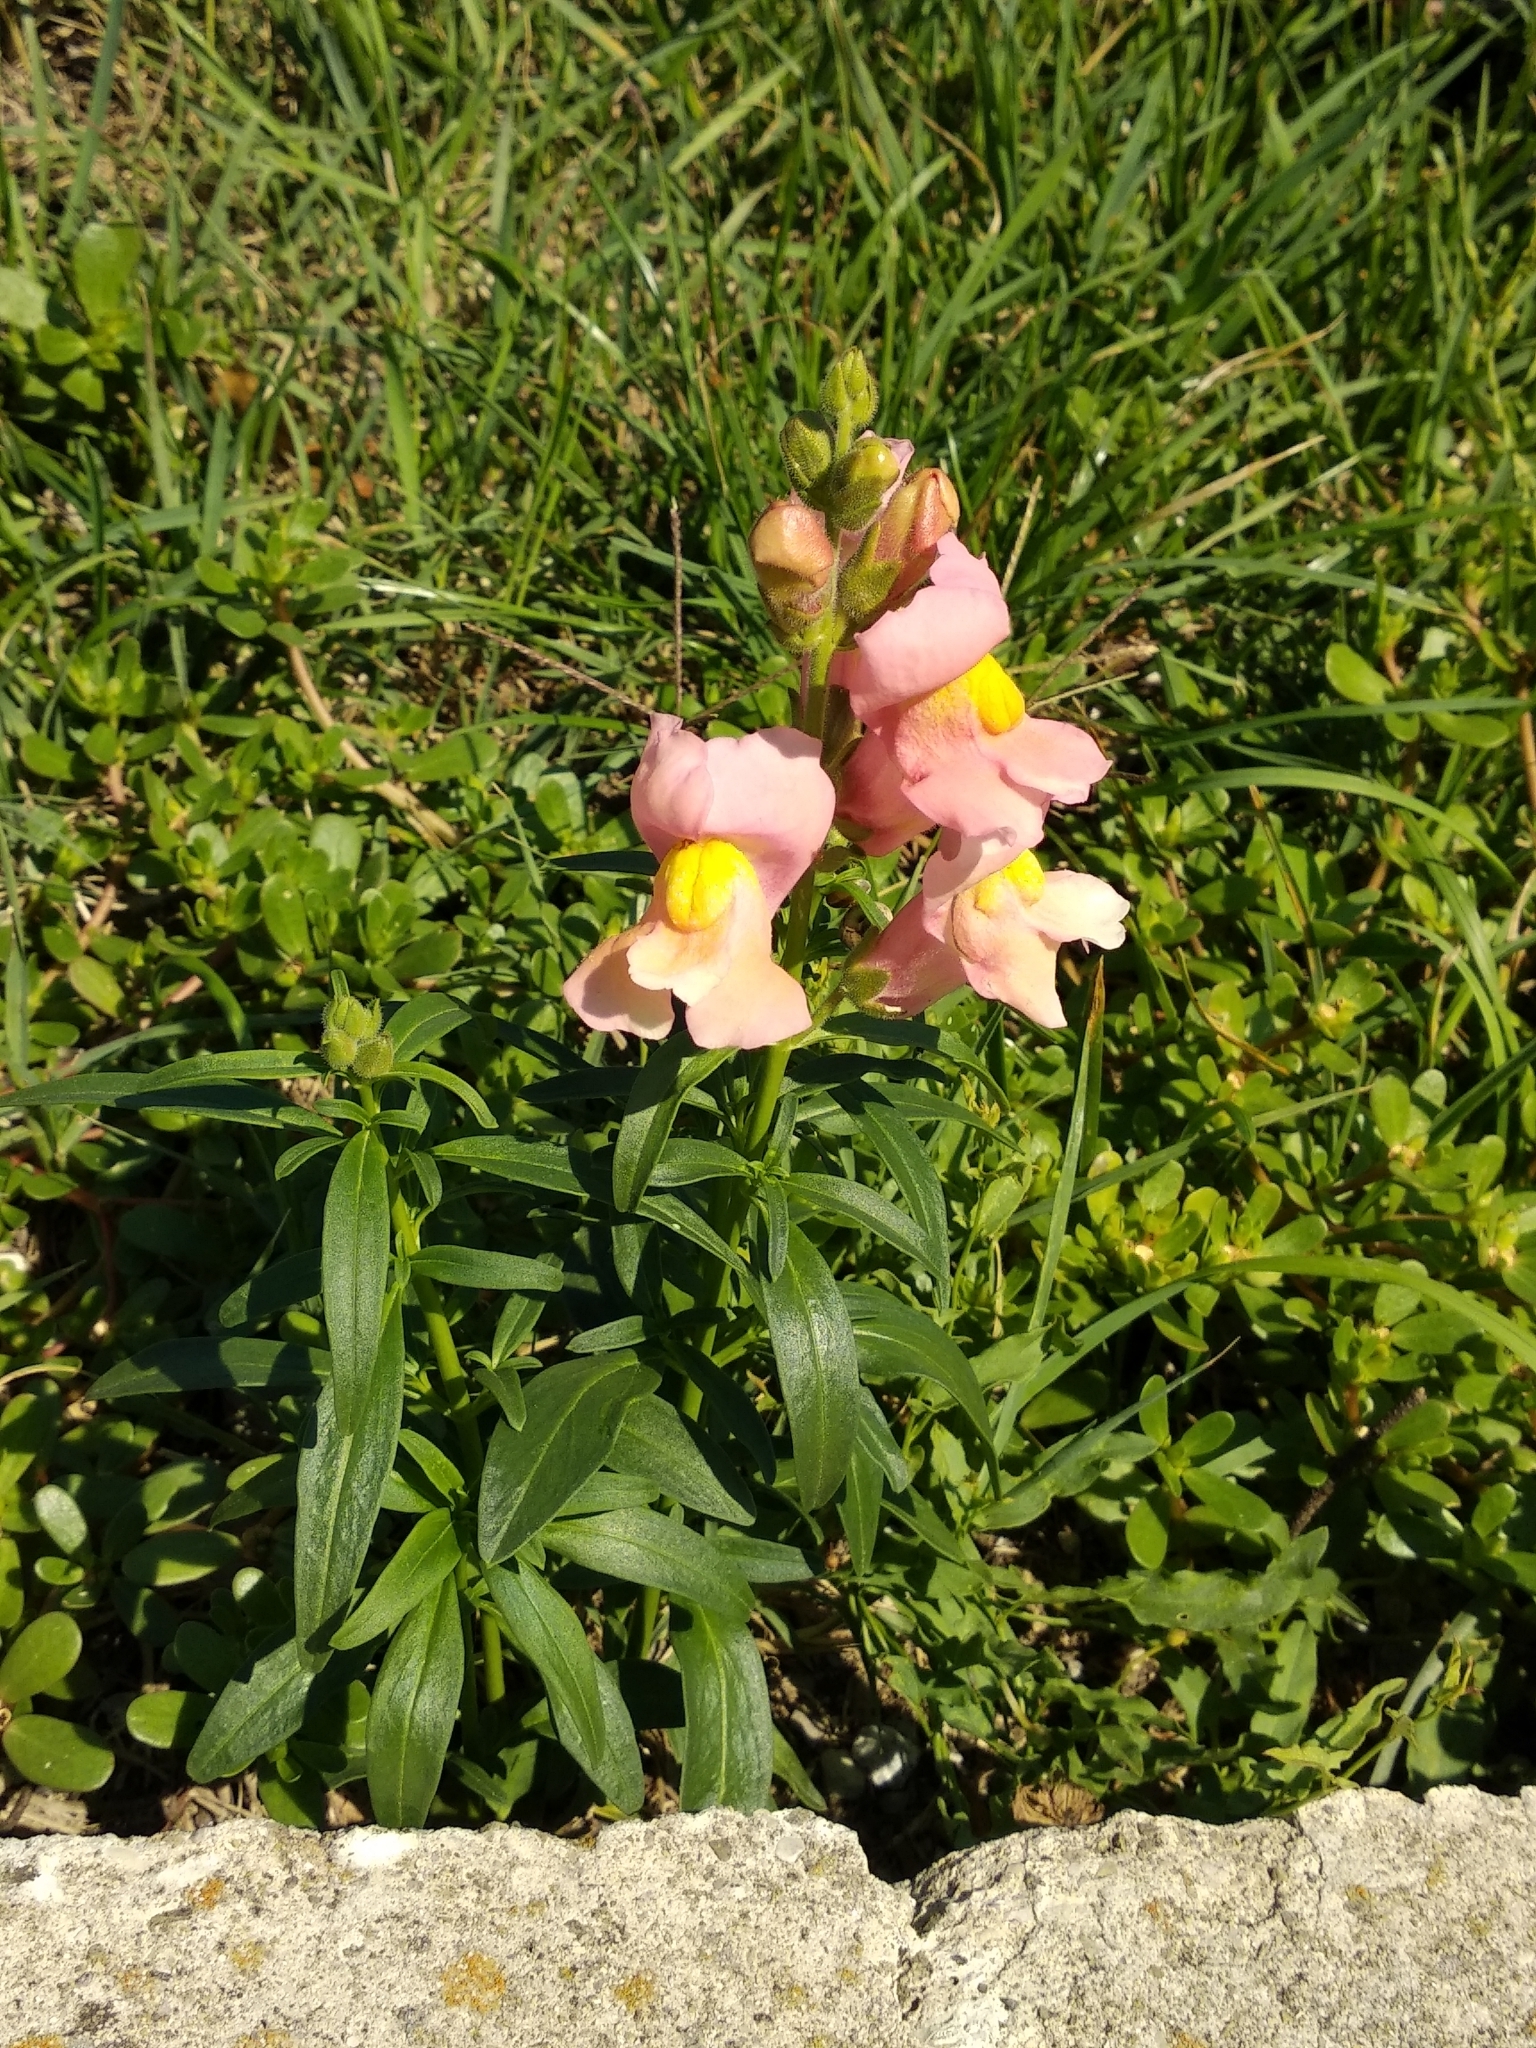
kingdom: Plantae
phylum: Tracheophyta
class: Magnoliopsida
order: Lamiales
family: Plantaginaceae
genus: Antirrhinum
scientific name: Antirrhinum majus
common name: Snapdragon
